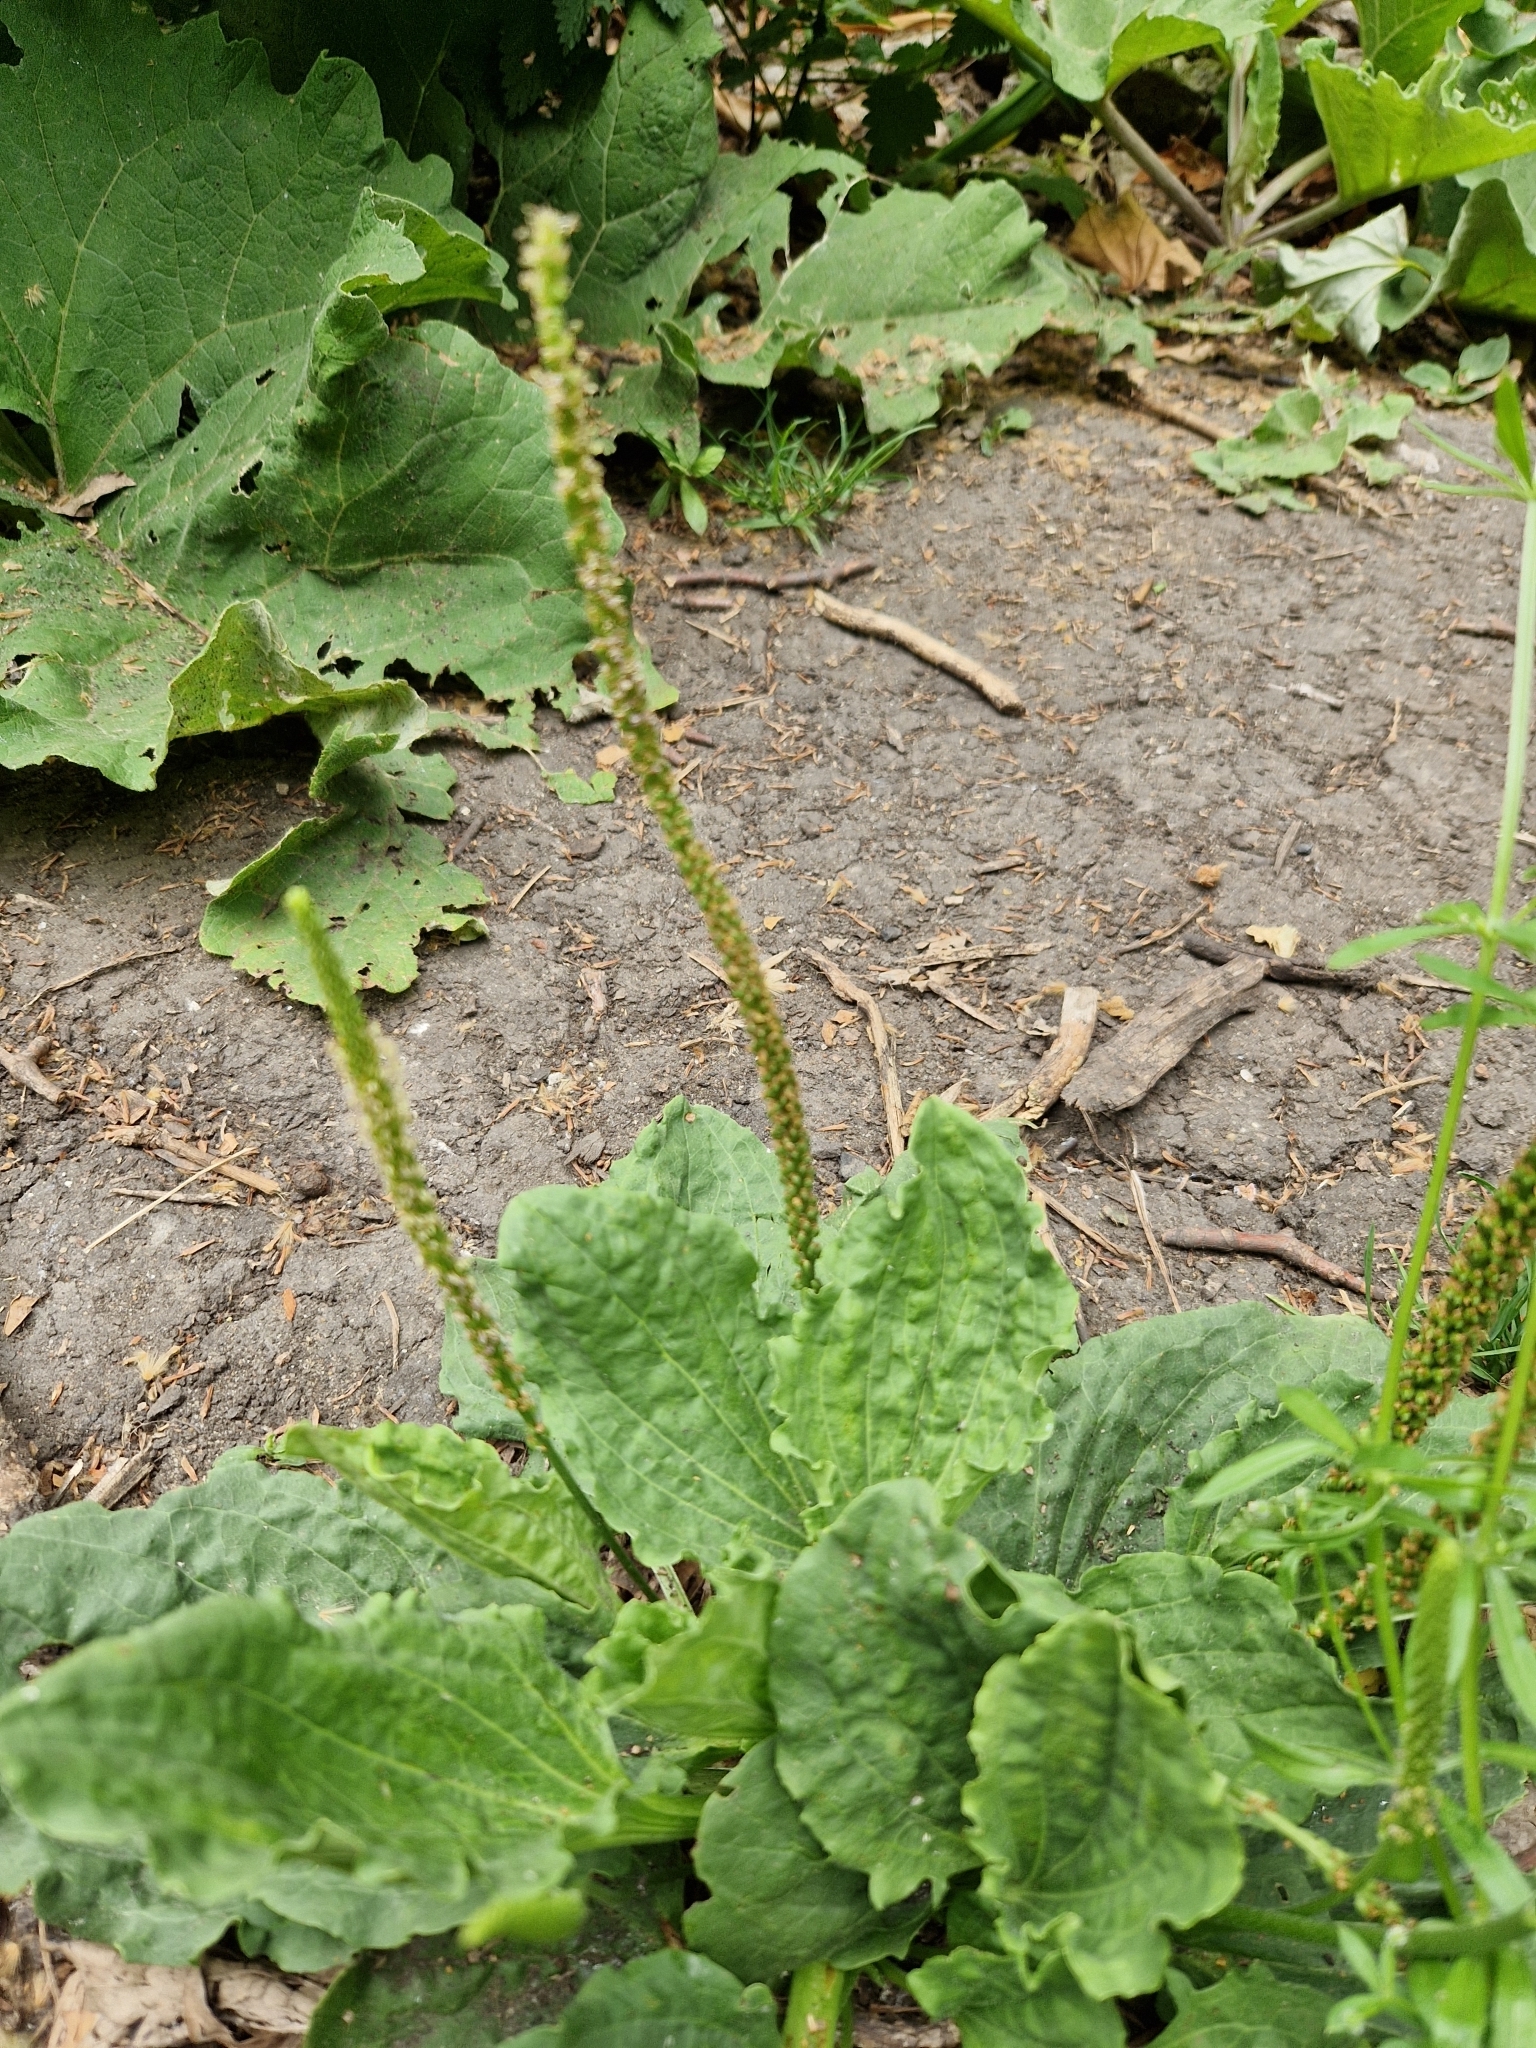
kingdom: Plantae
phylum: Tracheophyta
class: Magnoliopsida
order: Lamiales
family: Plantaginaceae
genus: Plantago
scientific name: Plantago major
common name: Common plantain
